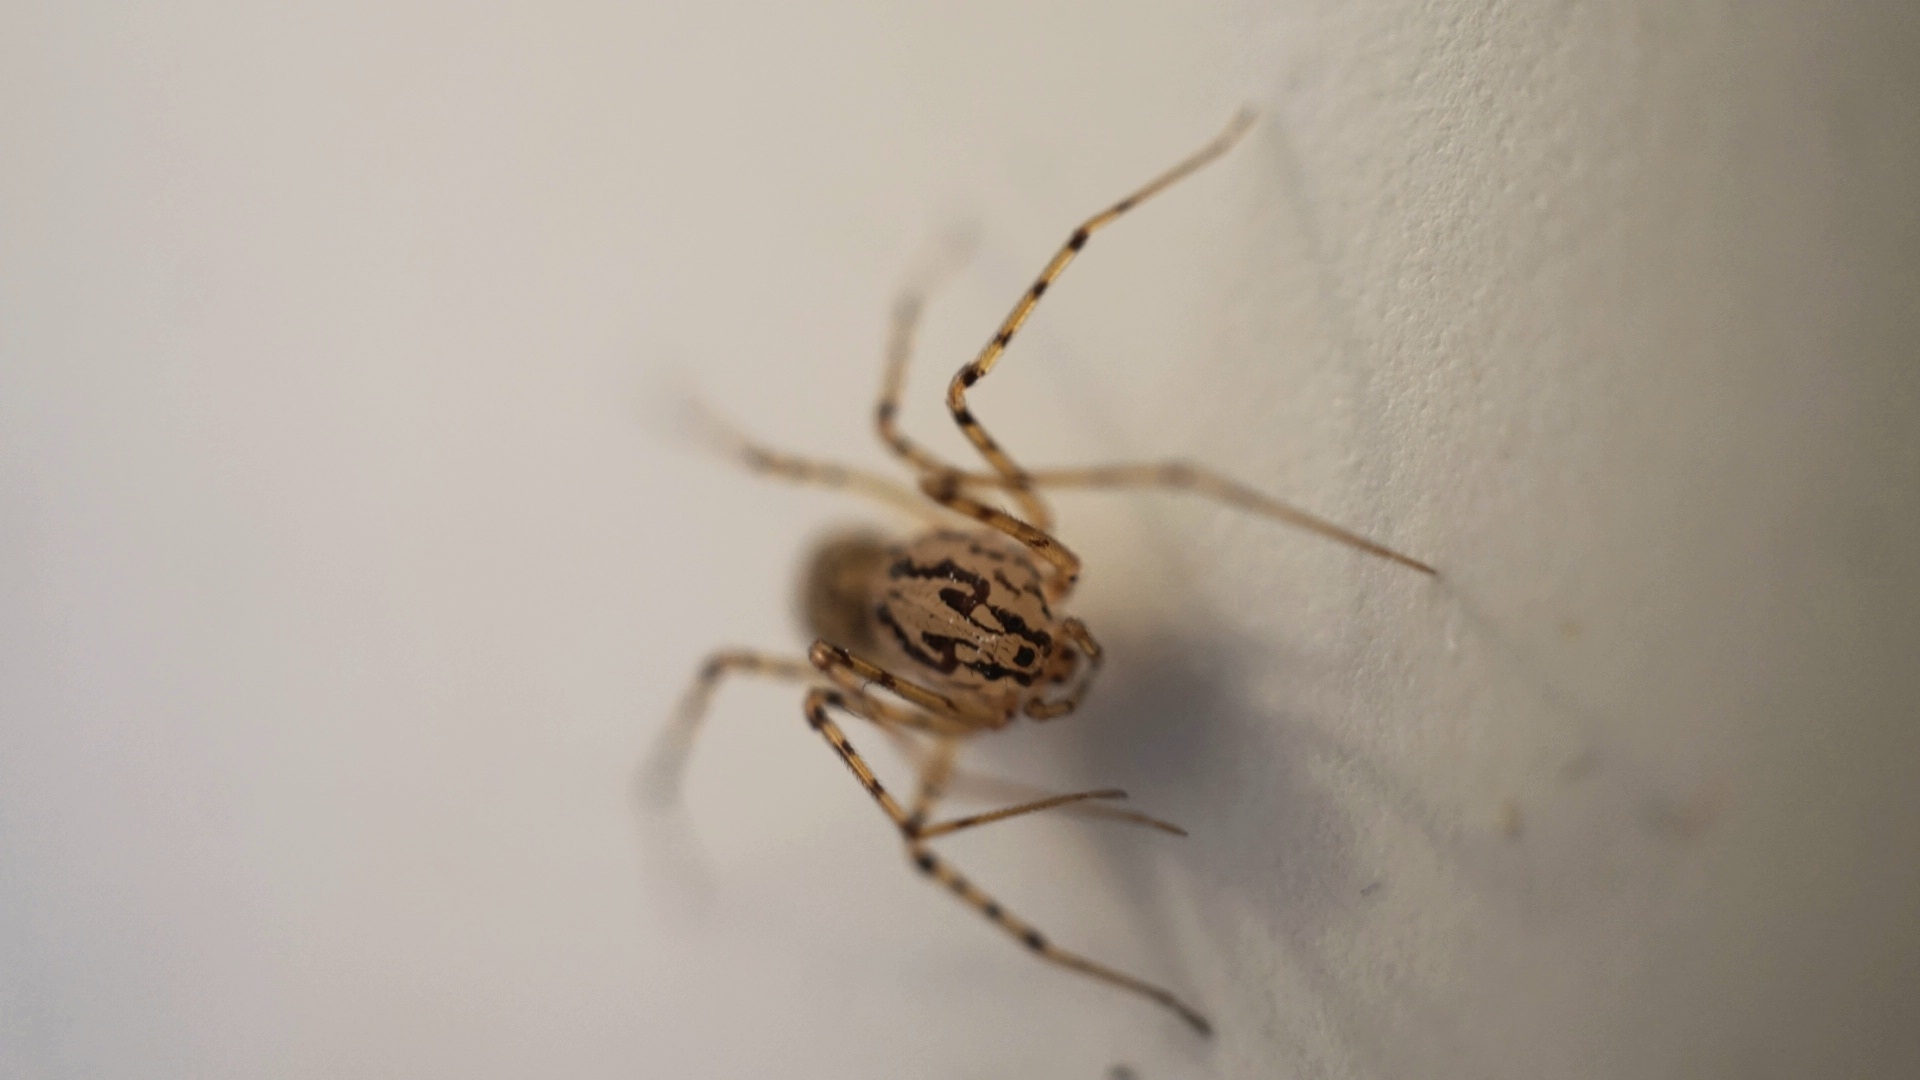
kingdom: Animalia
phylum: Arthropoda
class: Arachnida
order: Araneae
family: Scytodidae
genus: Scytodes
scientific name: Scytodes thoracica
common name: Spitting spider
